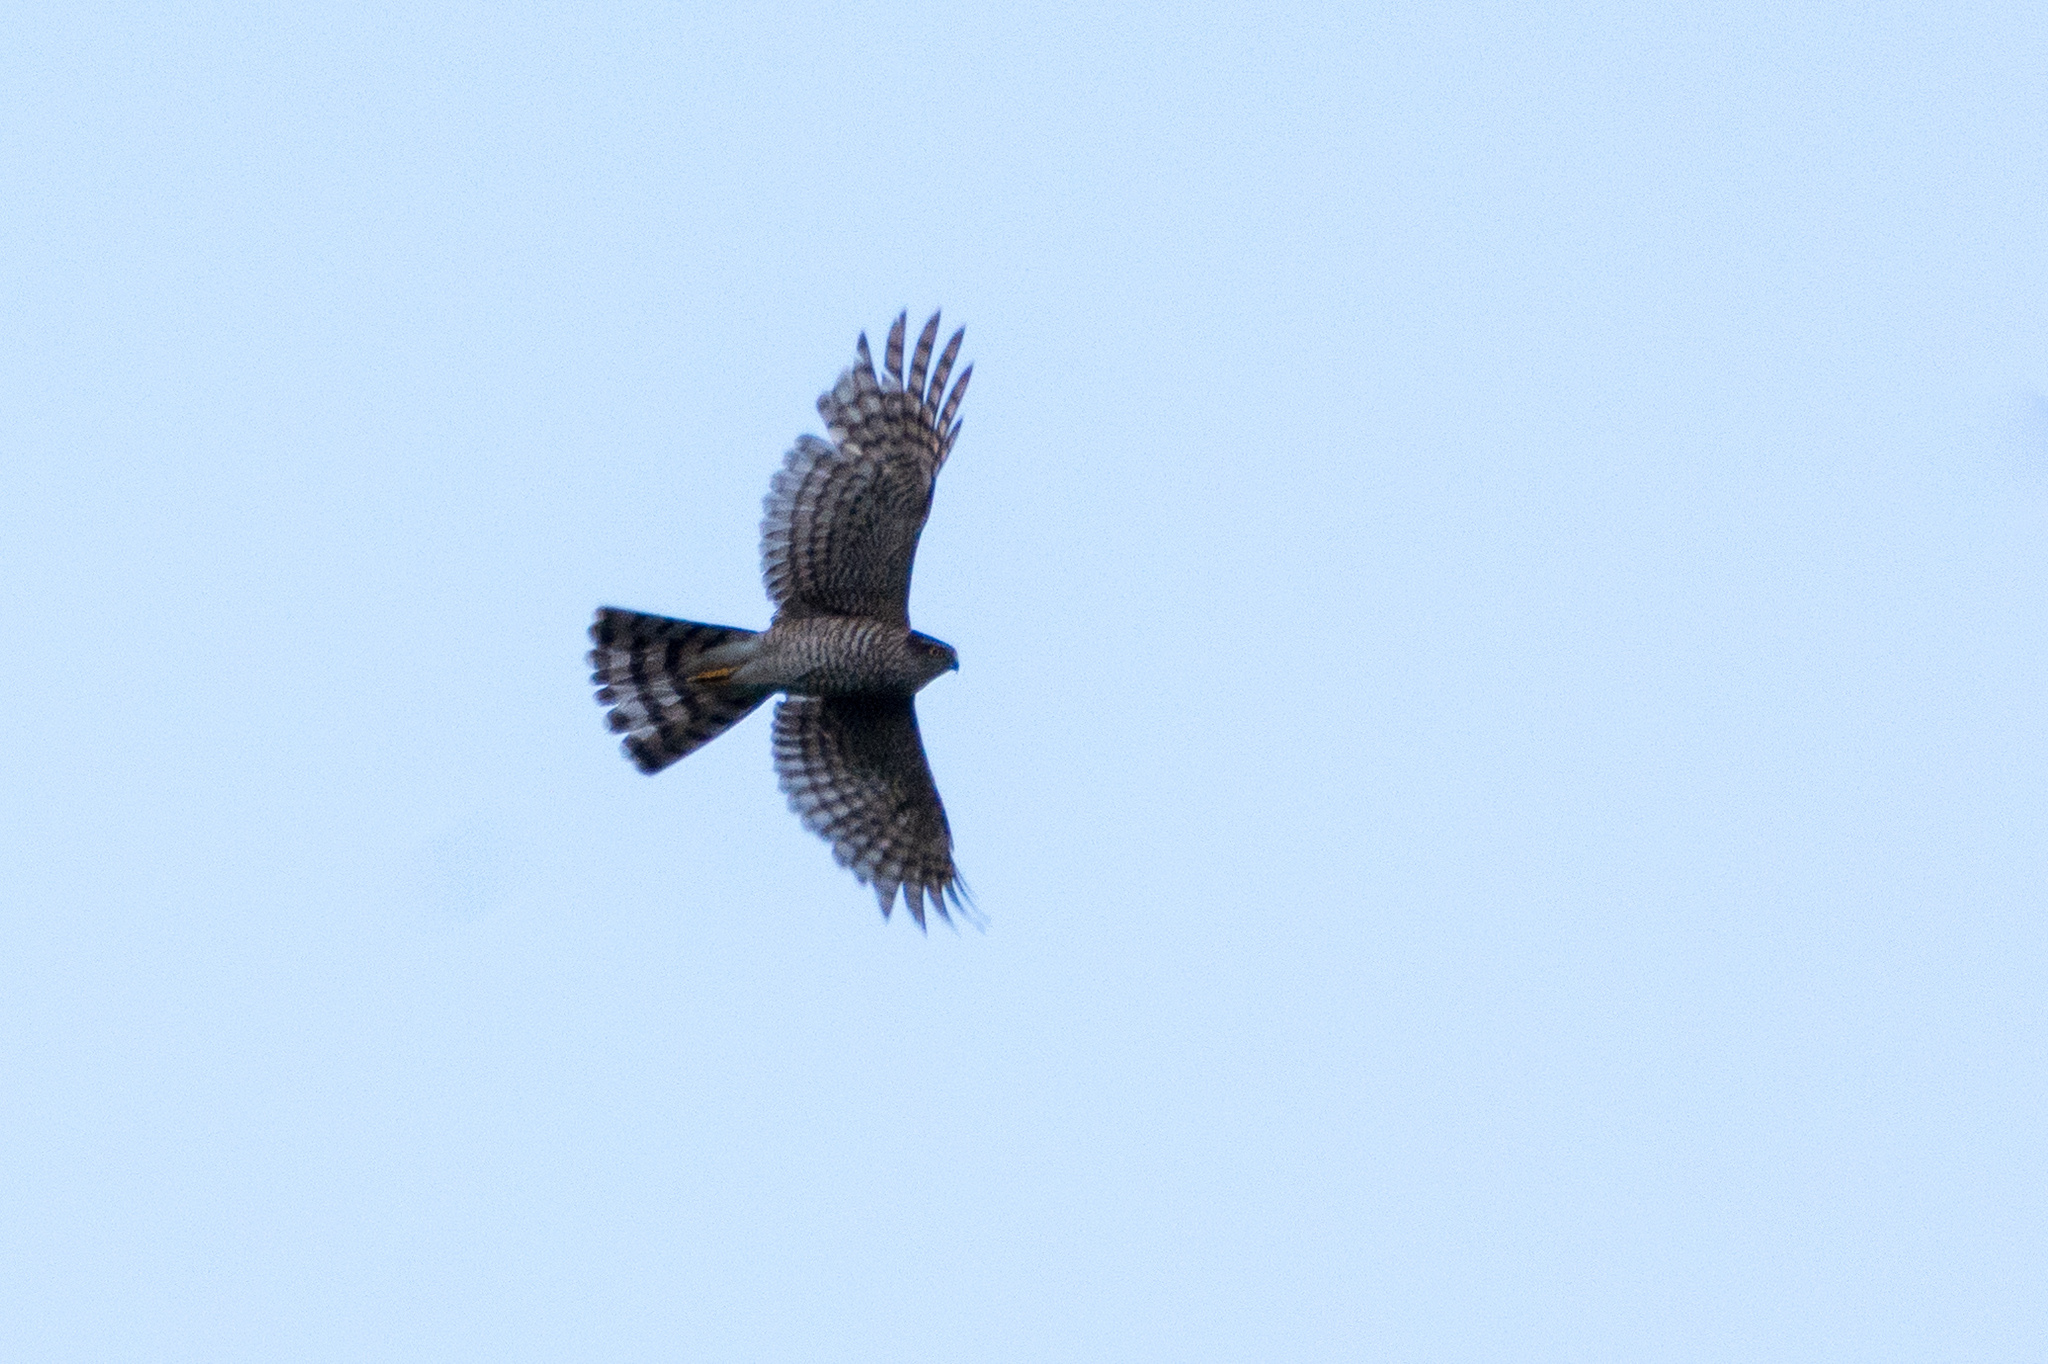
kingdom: Animalia
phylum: Chordata
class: Aves
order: Accipitriformes
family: Accipitridae
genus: Accipiter
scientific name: Accipiter nisus
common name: Eurasian sparrowhawk
